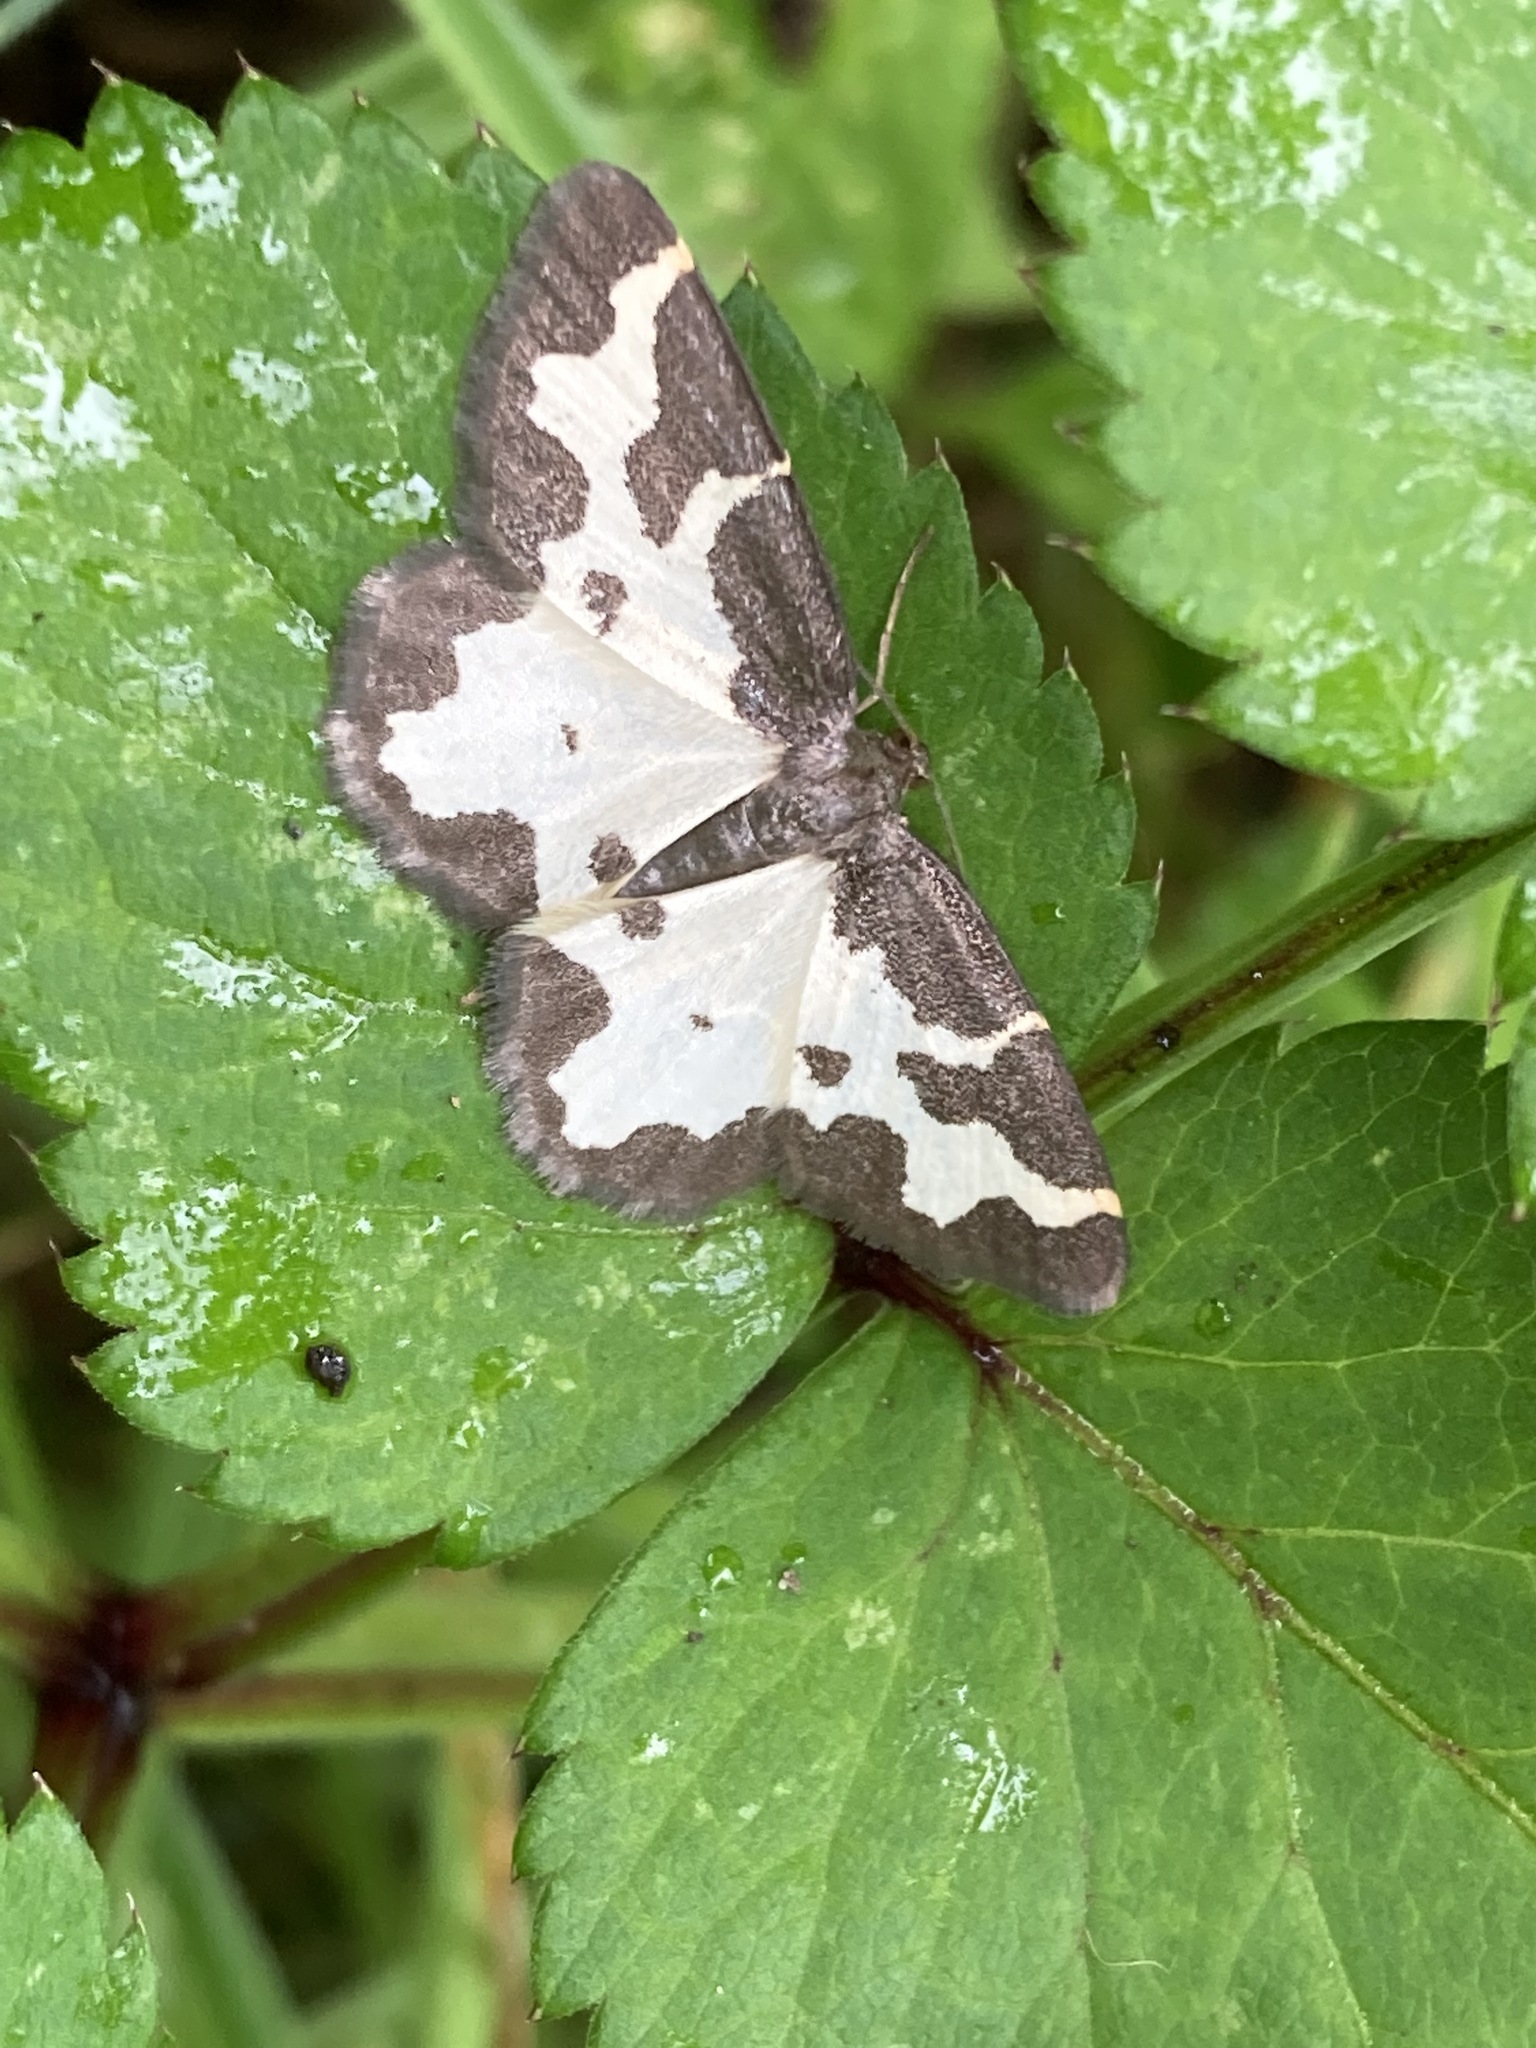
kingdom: Animalia
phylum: Arthropoda
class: Insecta
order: Lepidoptera
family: Geometridae
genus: Lomaspilis
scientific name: Lomaspilis marginata
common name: Clouded border
